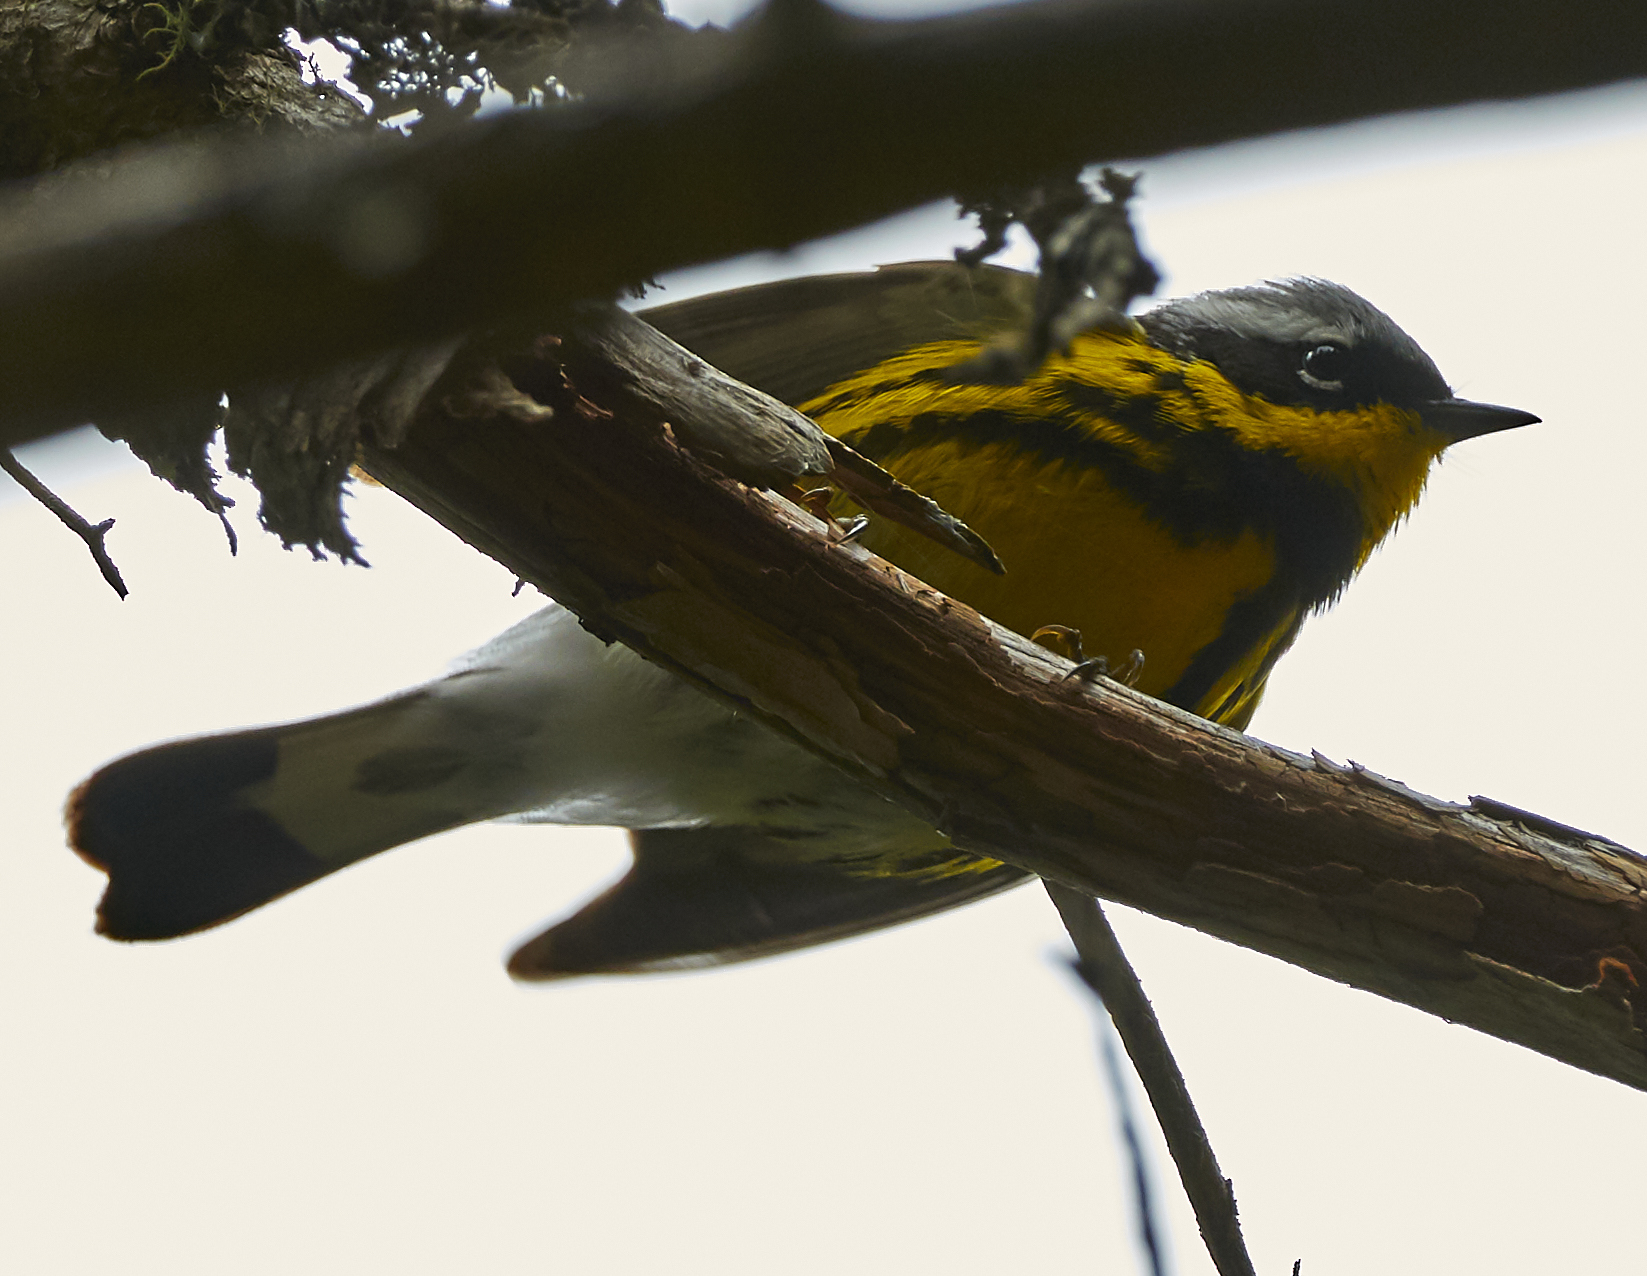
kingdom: Animalia
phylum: Chordata
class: Aves
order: Passeriformes
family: Parulidae
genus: Setophaga
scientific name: Setophaga magnolia
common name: Magnolia warbler
